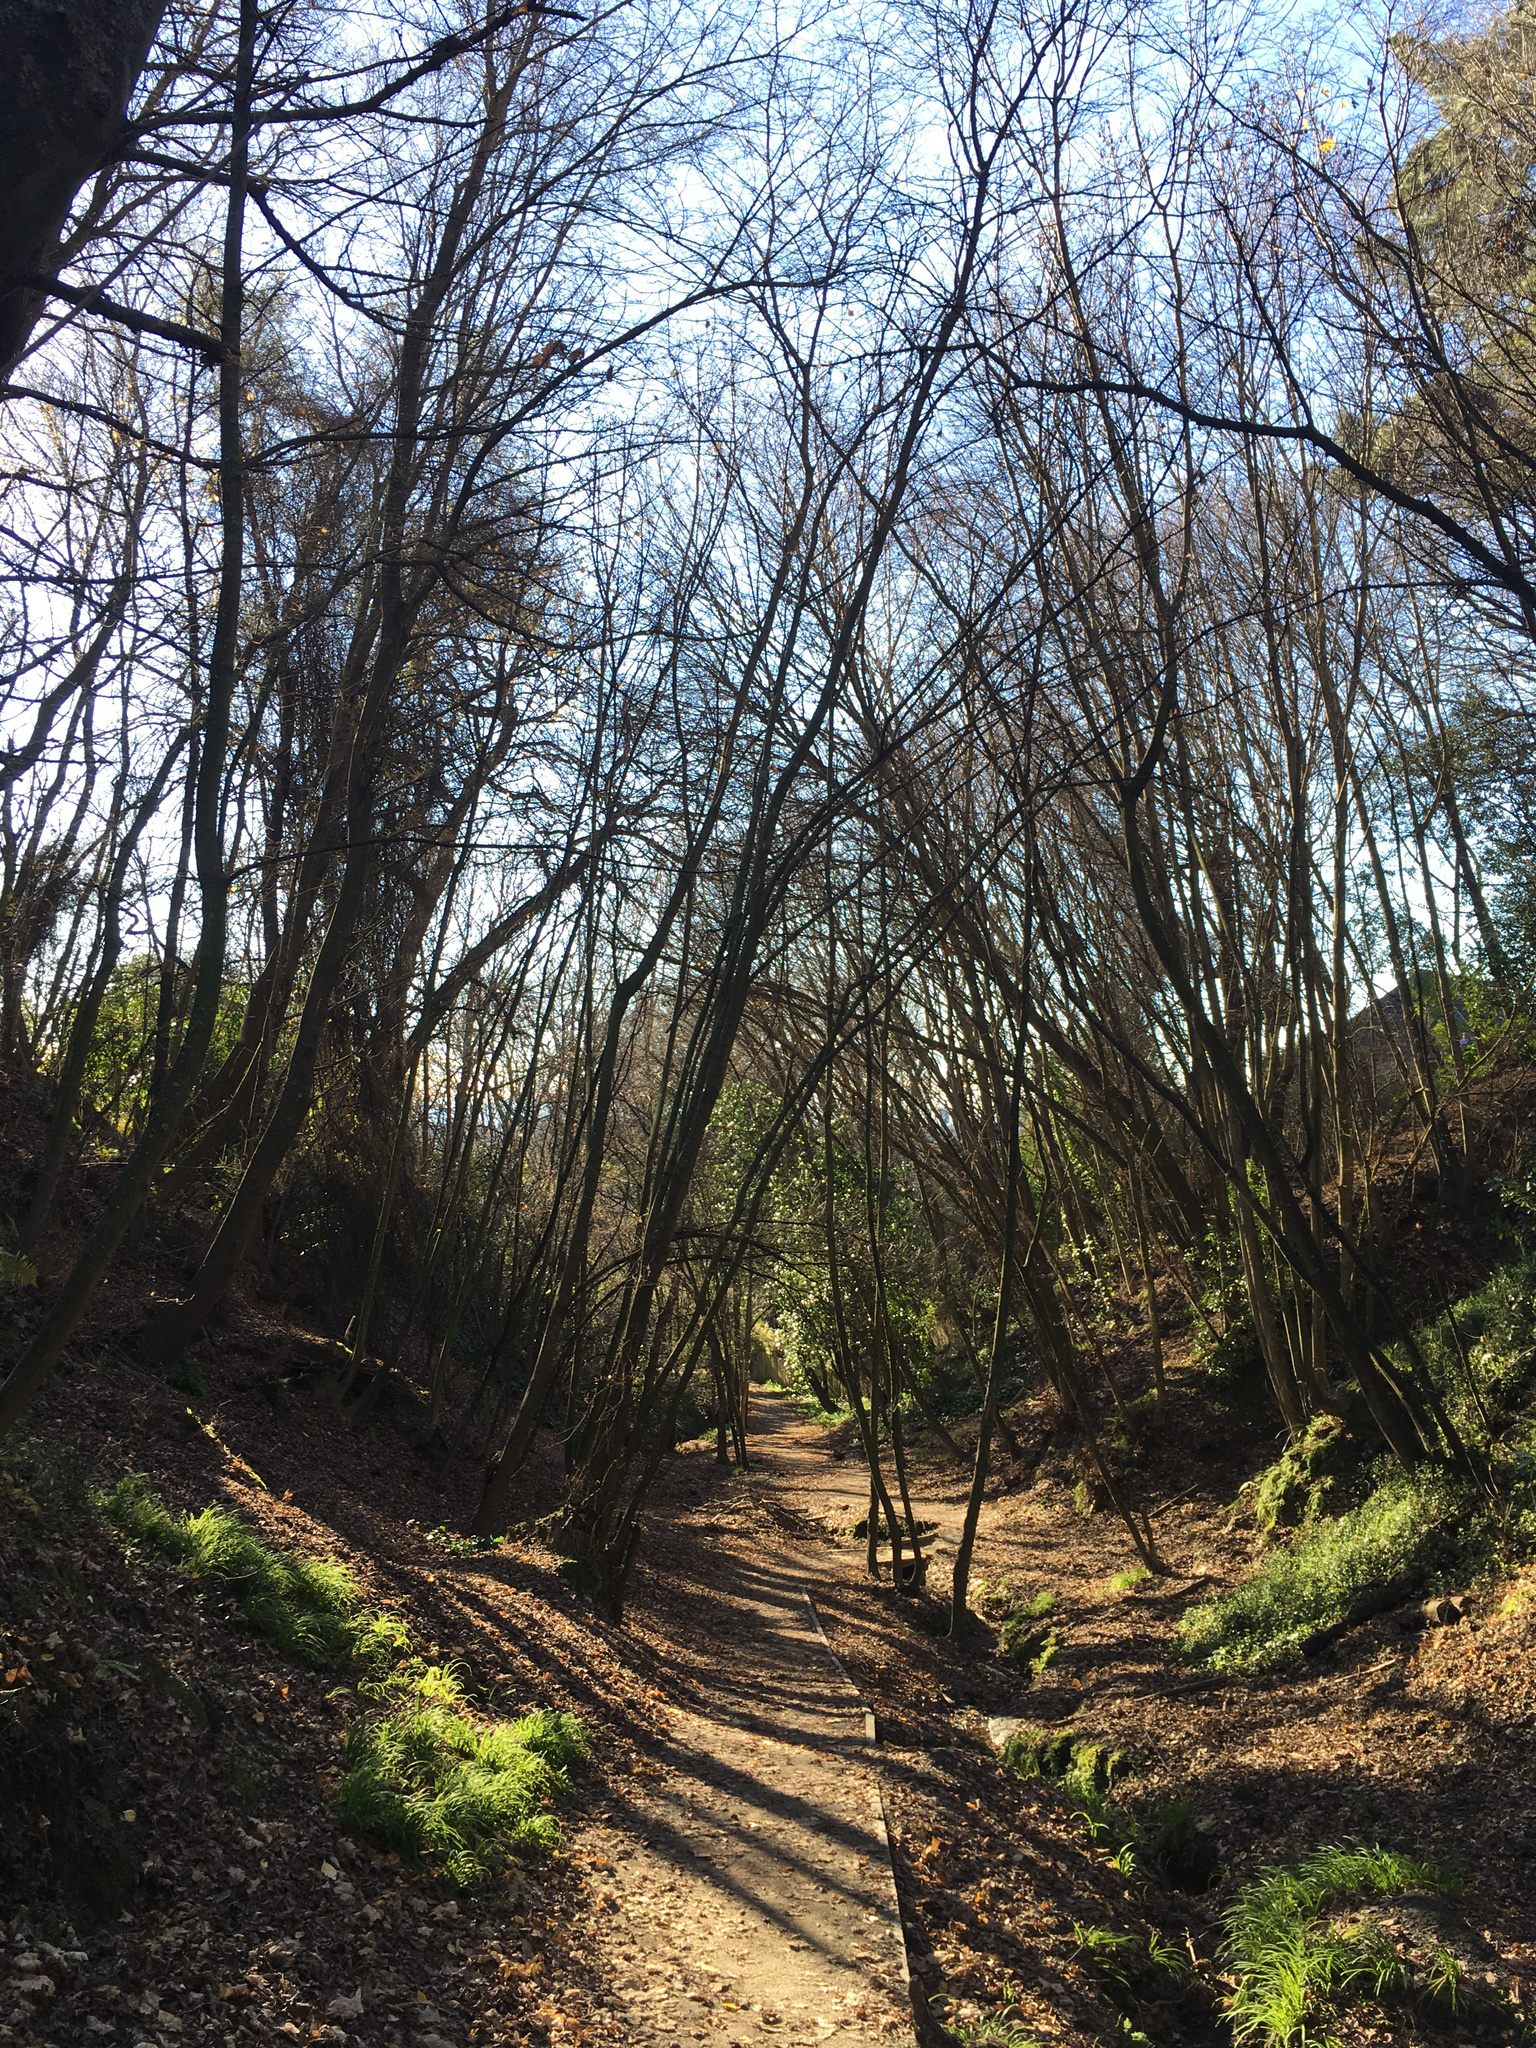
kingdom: Plantae
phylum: Tracheophyta
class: Magnoliopsida
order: Sapindales
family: Sapindaceae
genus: Acer
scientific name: Acer pseudoplatanus
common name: Sycamore
